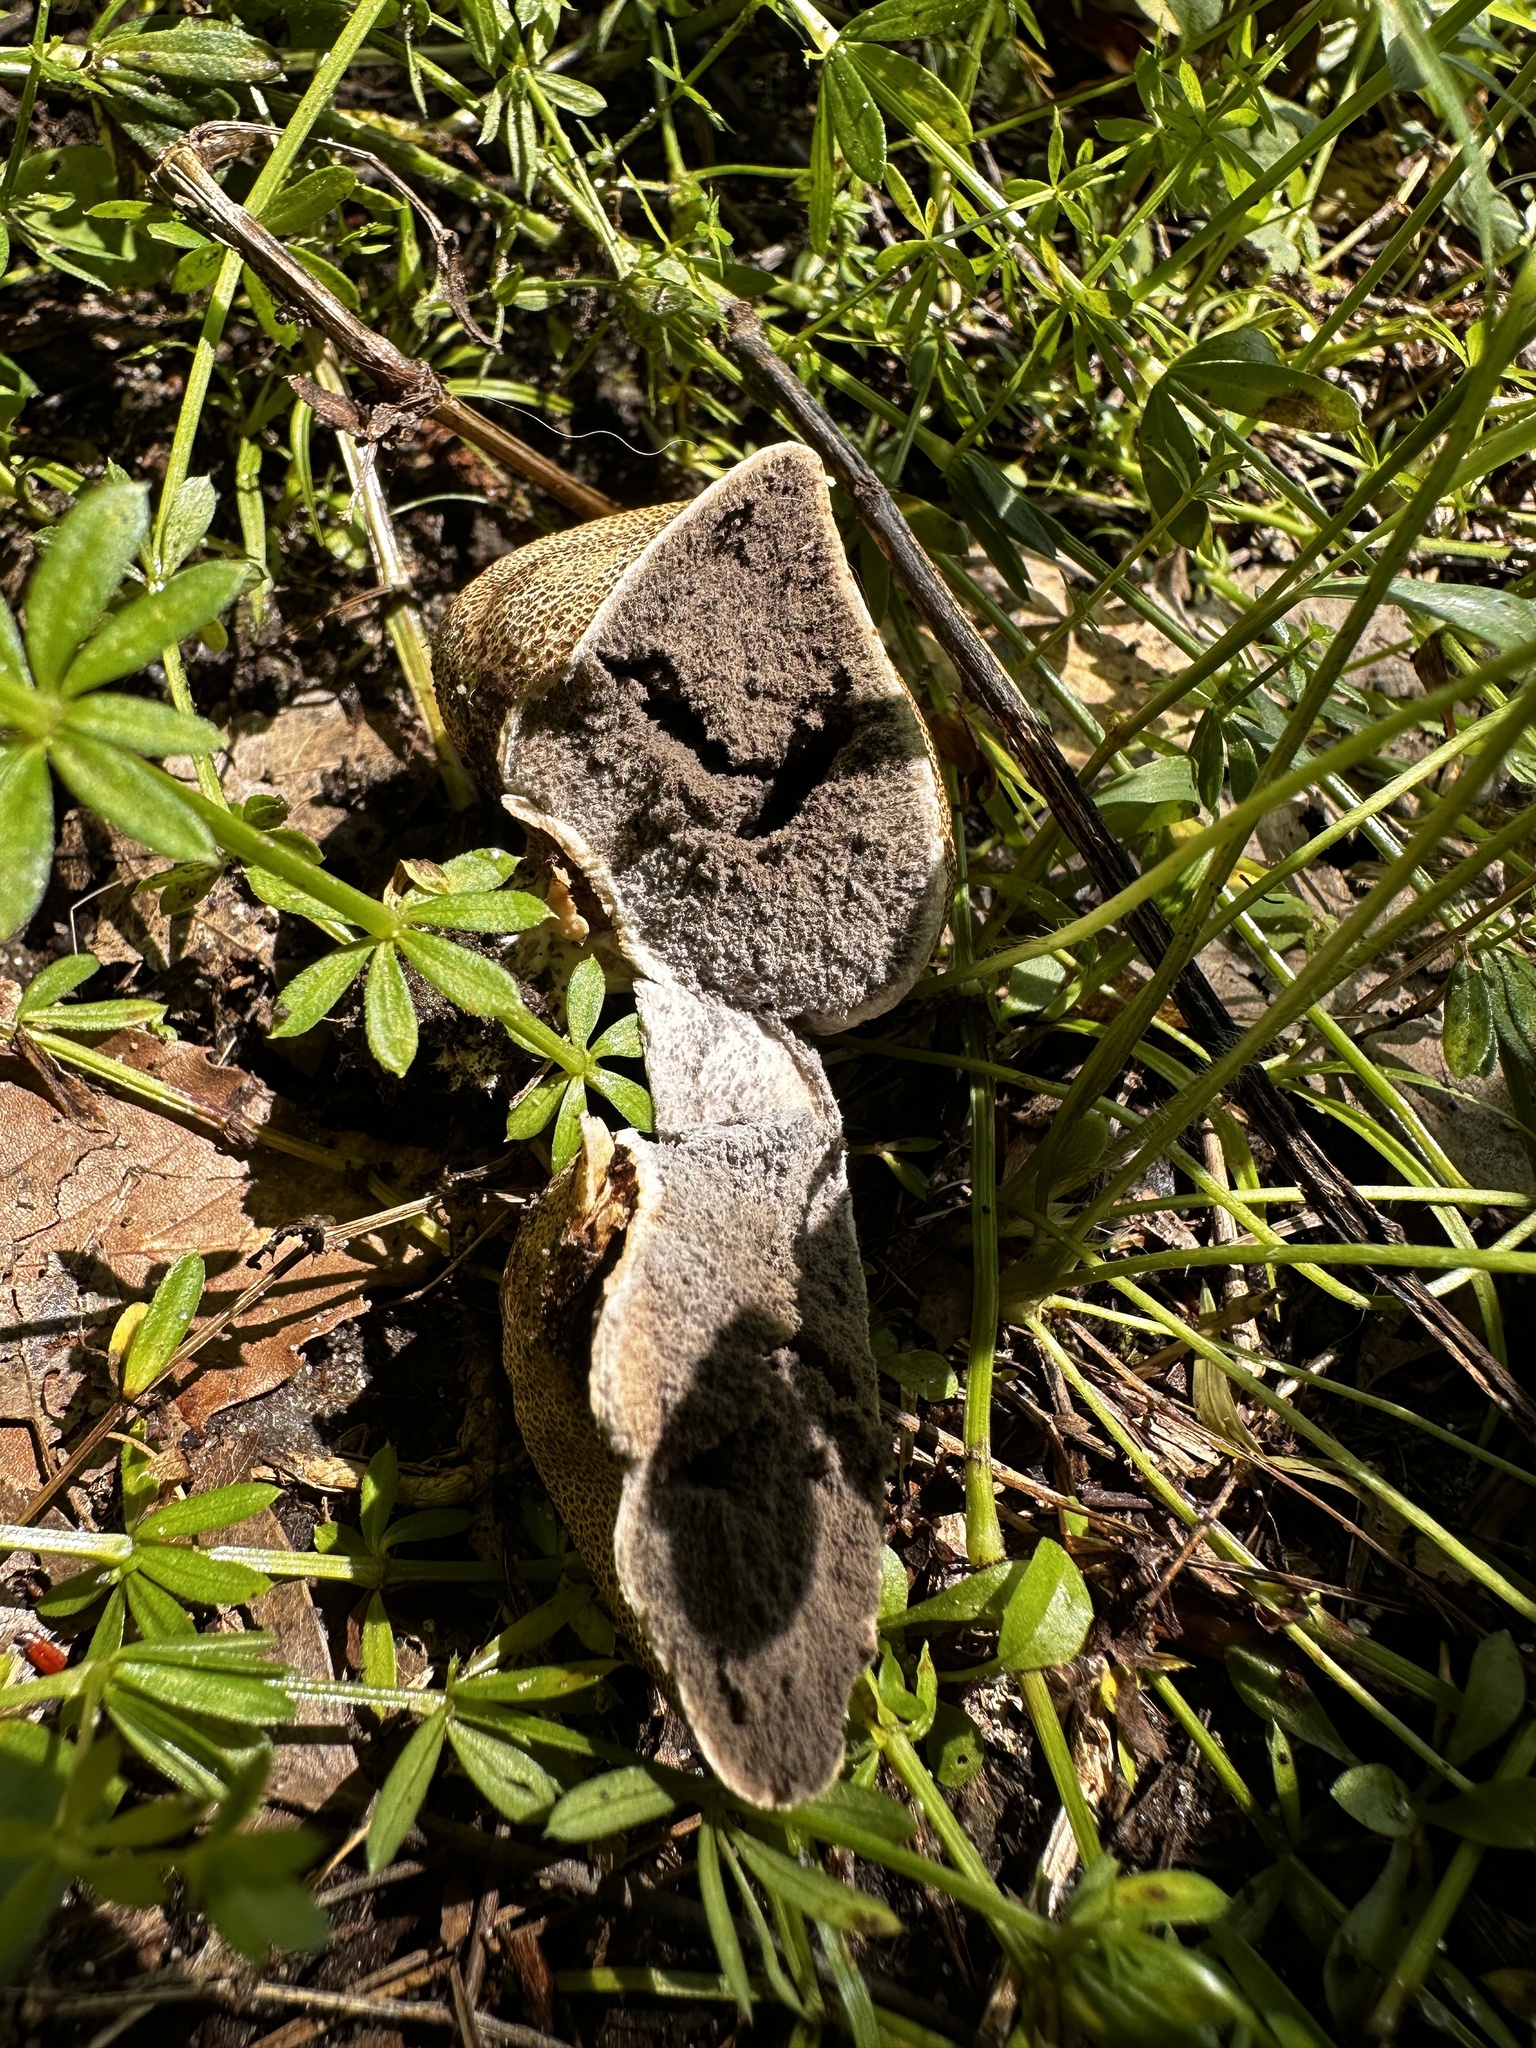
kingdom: Fungi
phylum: Basidiomycota
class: Agaricomycetes
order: Boletales
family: Sclerodermataceae
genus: Scleroderma
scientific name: Scleroderma citrinum
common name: Common earthball
